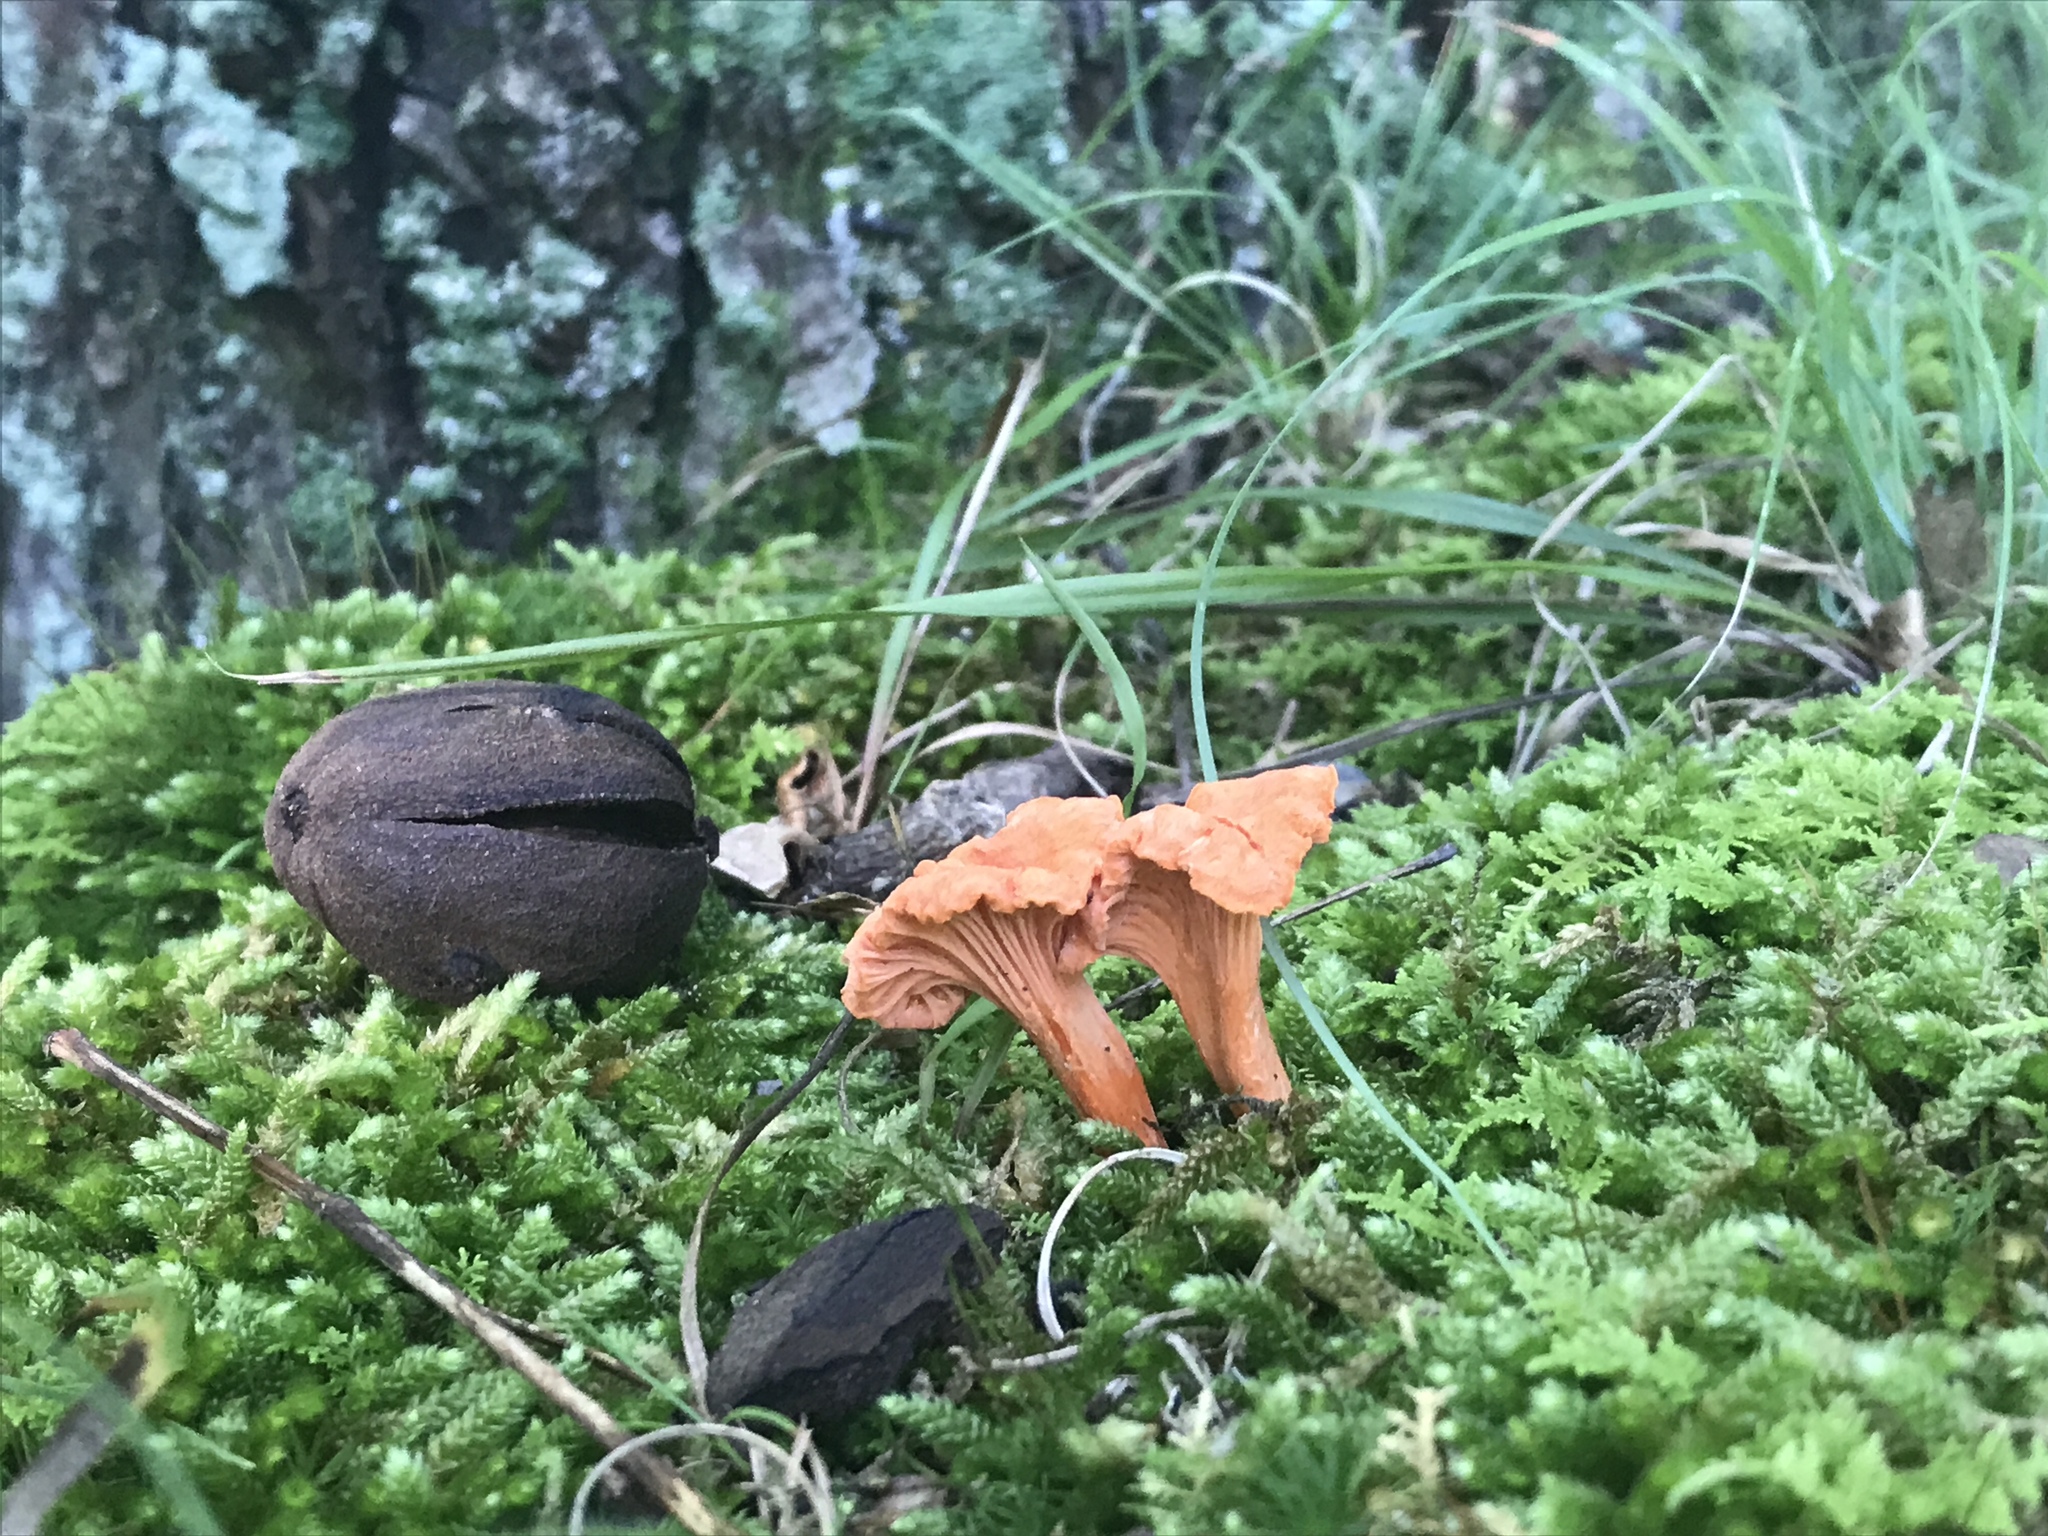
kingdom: Fungi
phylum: Basidiomycota
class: Agaricomycetes
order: Cantharellales
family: Hydnaceae
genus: Cantharellus
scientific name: Cantharellus corallinus
